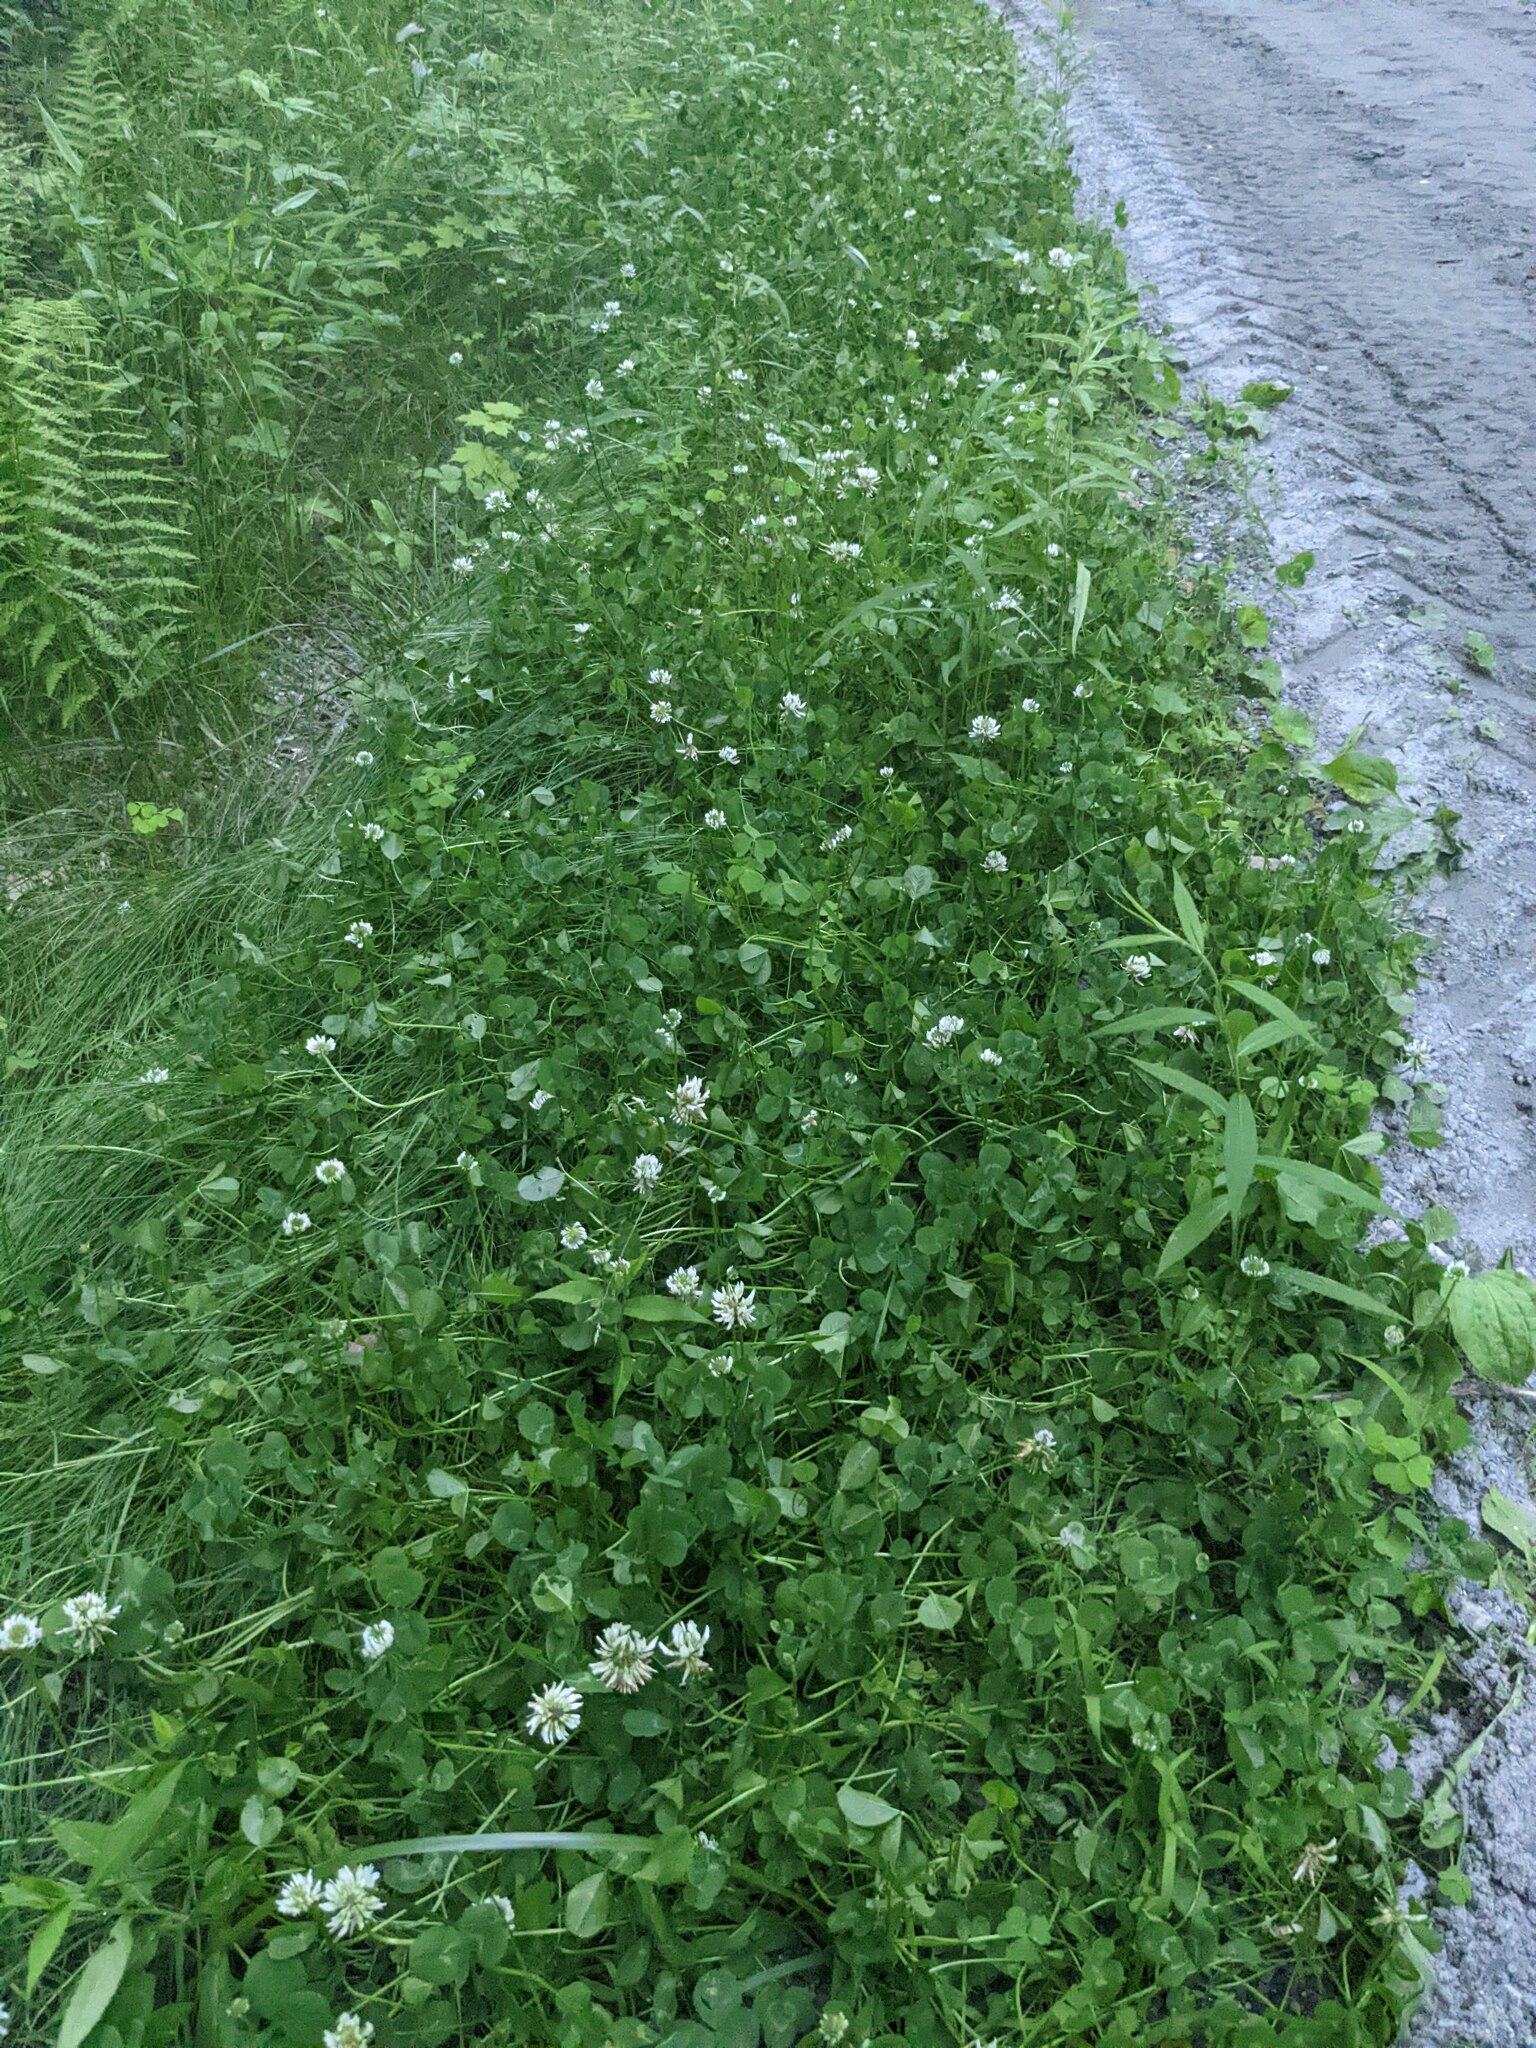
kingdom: Plantae
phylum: Tracheophyta
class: Magnoliopsida
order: Fabales
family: Fabaceae
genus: Trifolium
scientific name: Trifolium repens
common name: White clover
